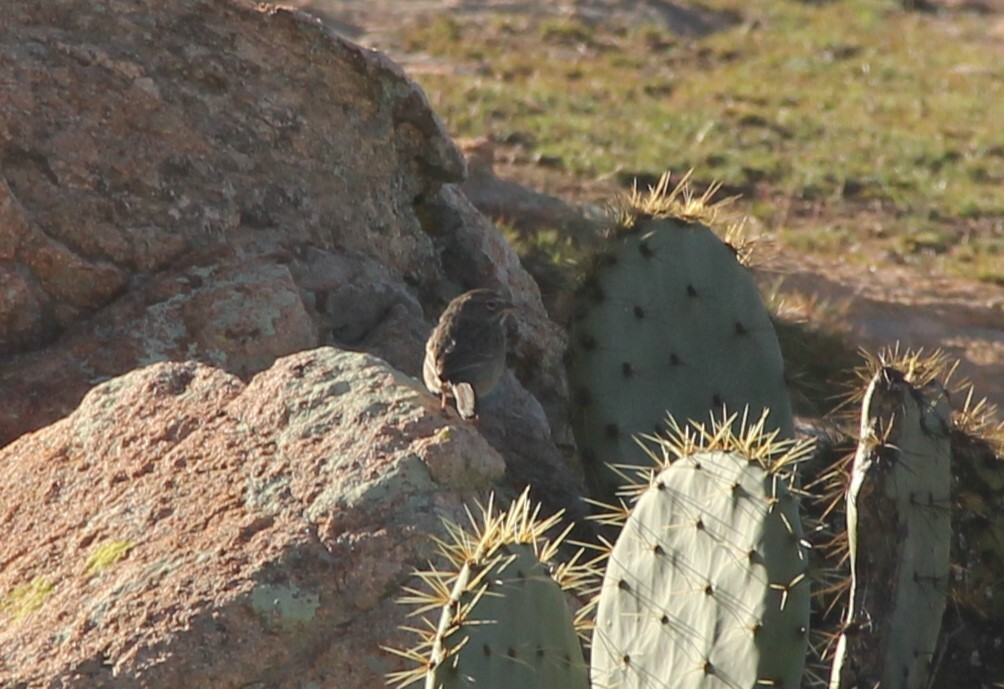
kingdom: Animalia
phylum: Chordata
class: Aves
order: Passeriformes
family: Passerellidae
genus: Aimophila
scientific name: Aimophila ruficeps
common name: Rufous-crowned sparrow
